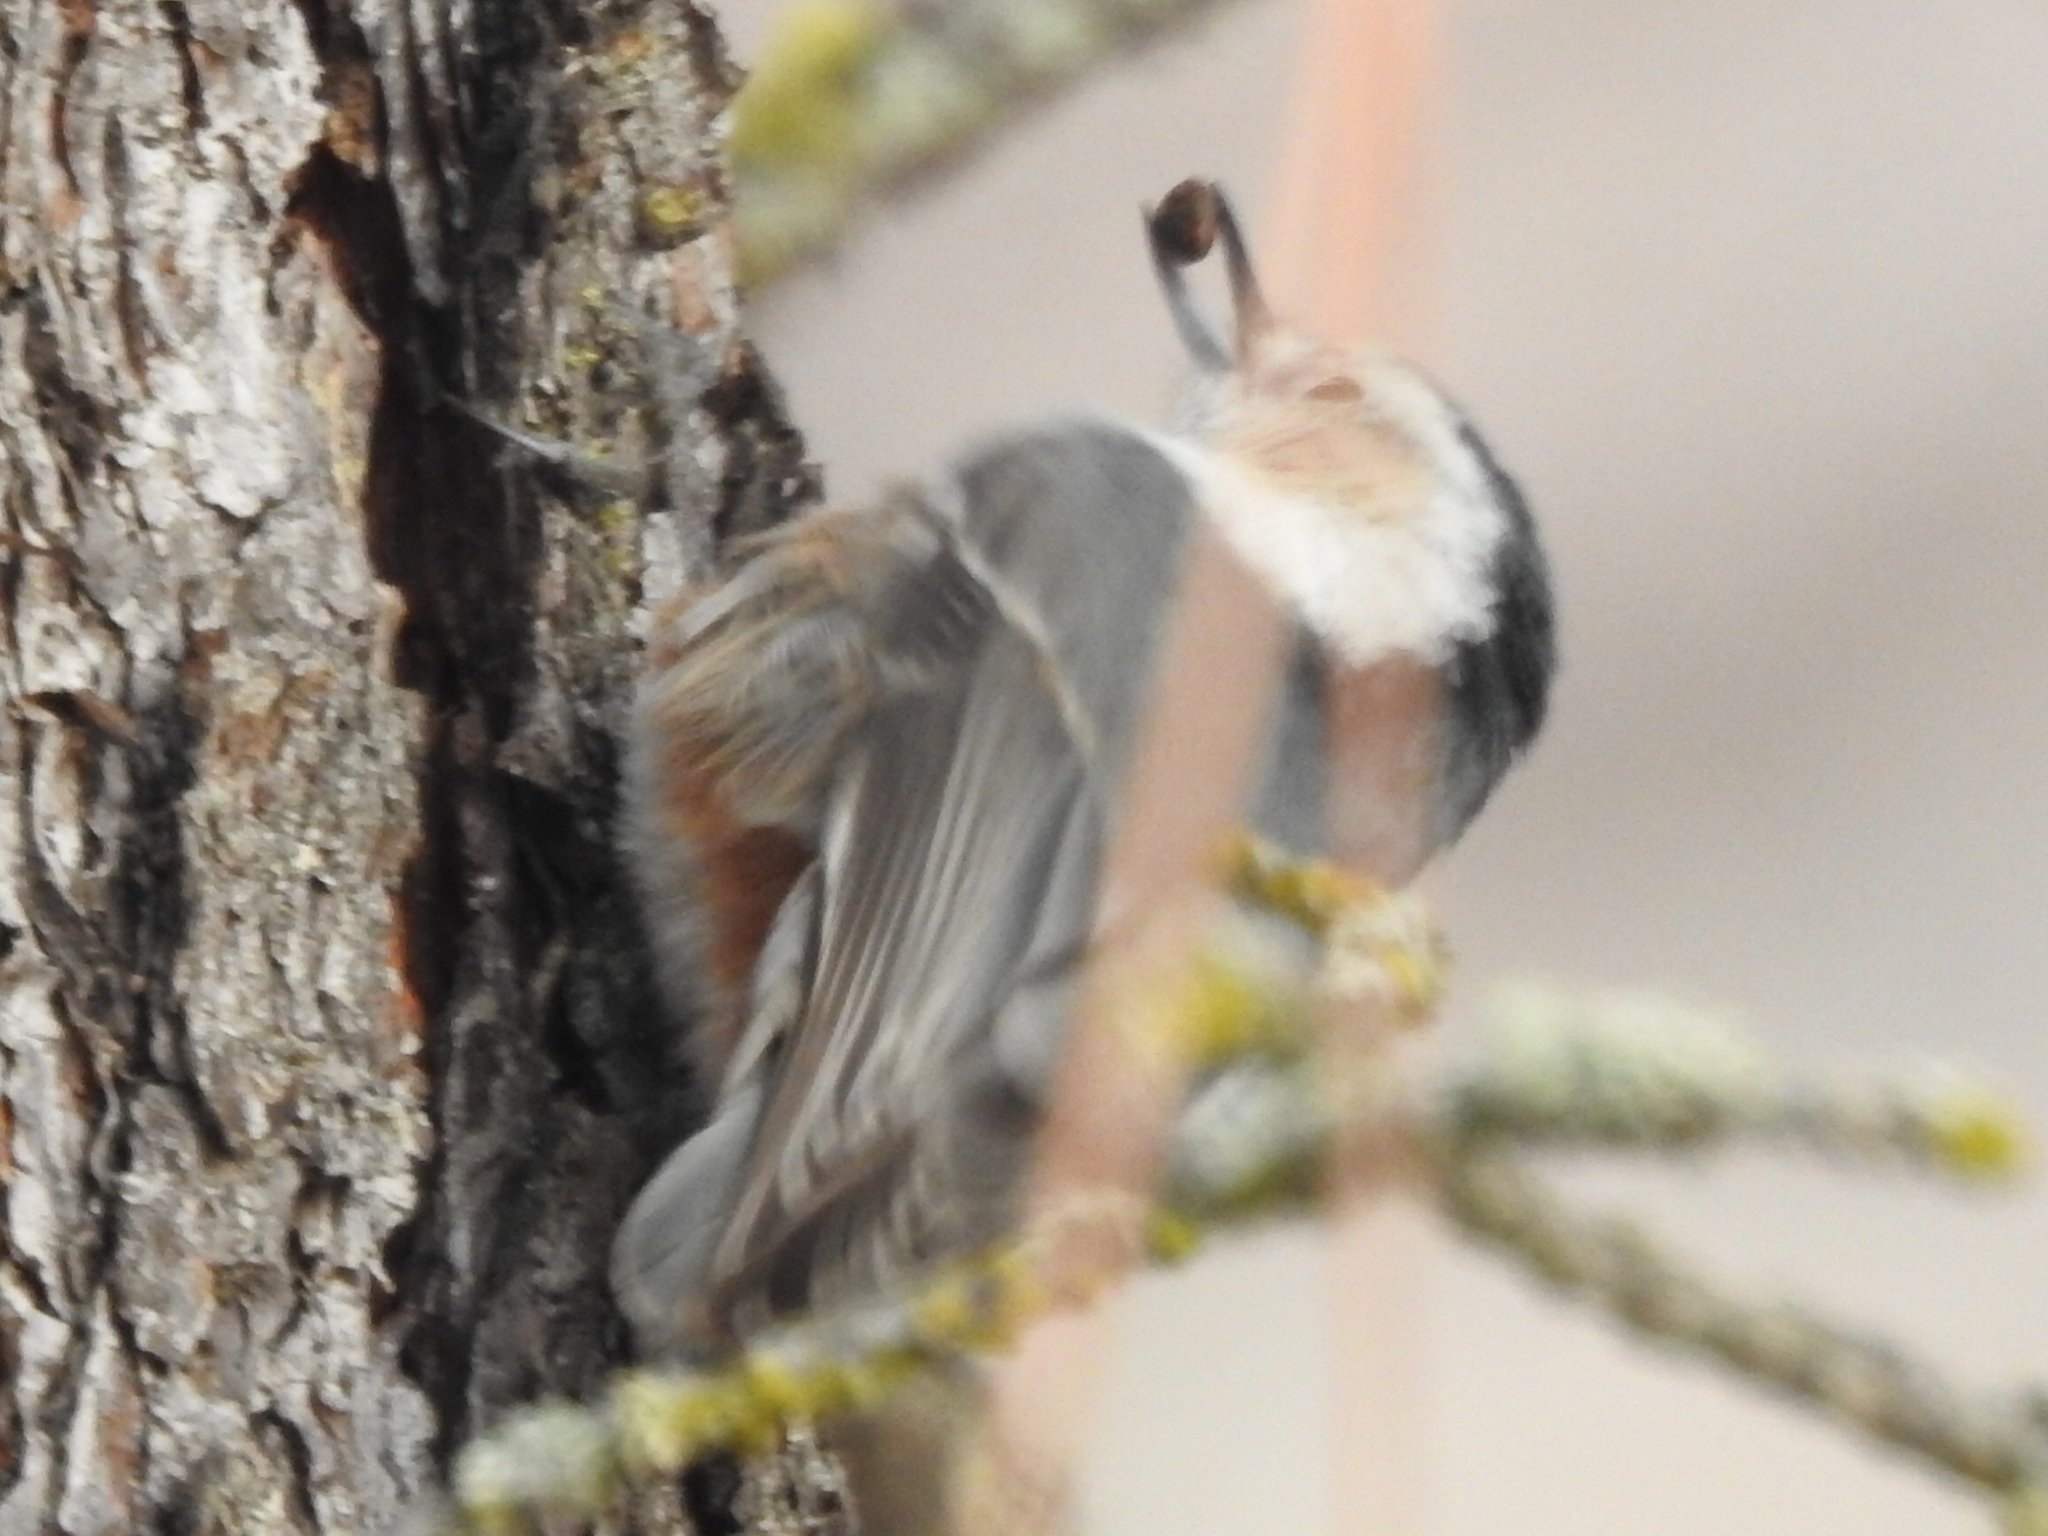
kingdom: Animalia
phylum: Chordata
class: Aves
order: Passeriformes
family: Sittidae
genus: Sitta
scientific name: Sitta carolinensis
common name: White-breasted nuthatch
